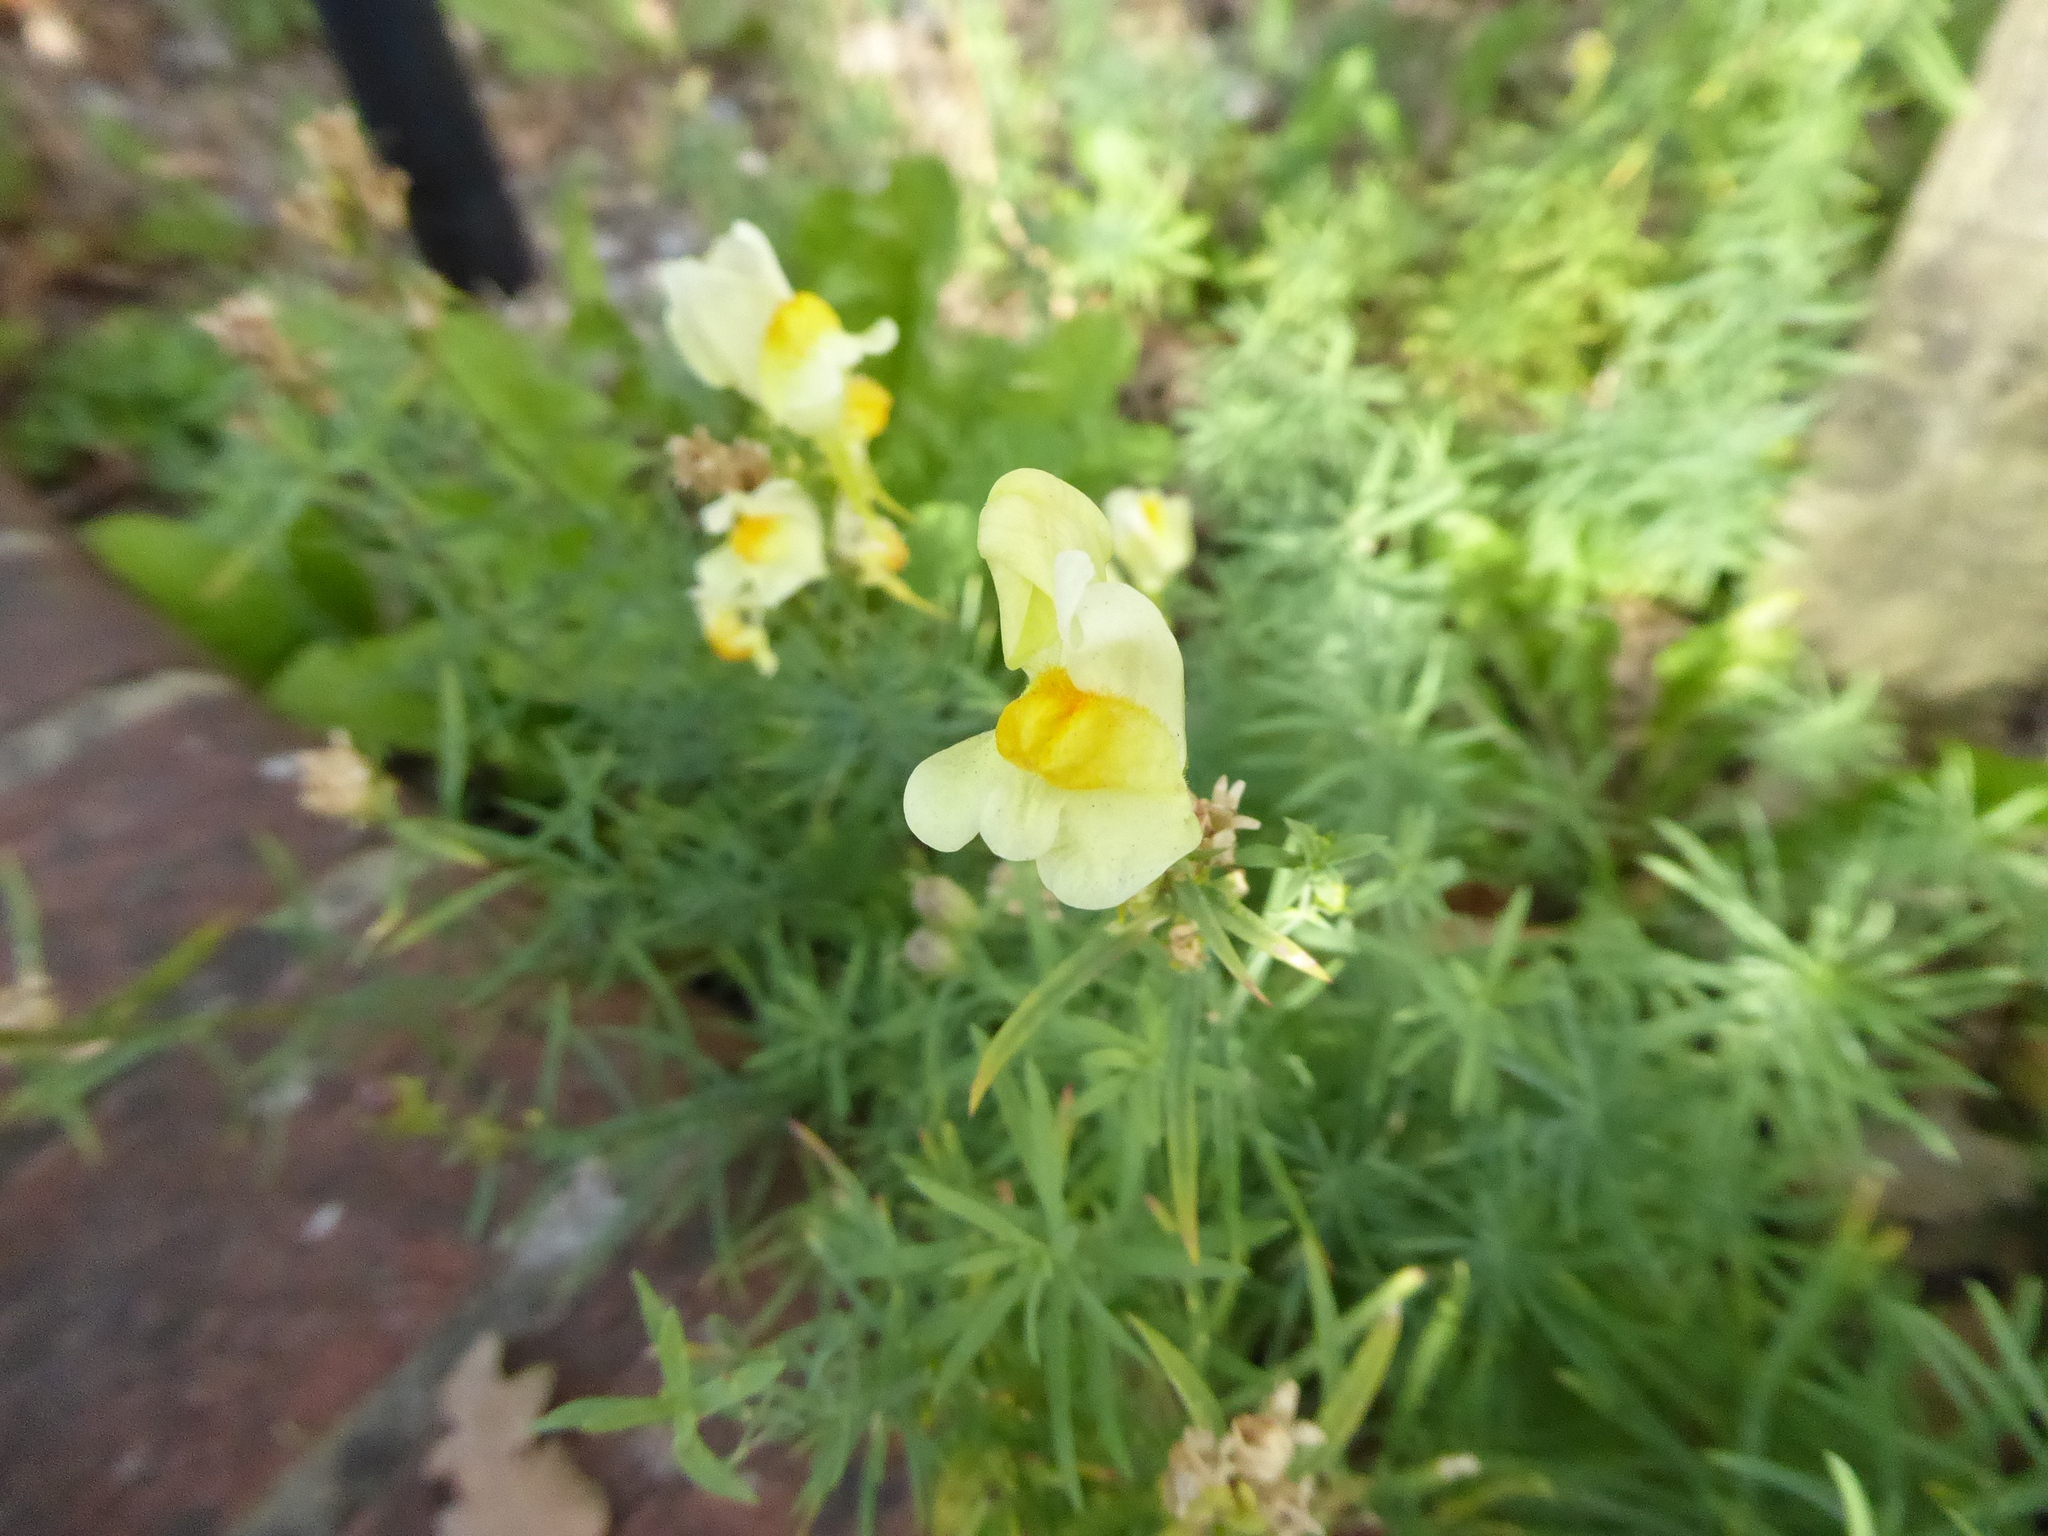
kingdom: Plantae
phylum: Tracheophyta
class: Magnoliopsida
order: Lamiales
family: Plantaginaceae
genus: Linaria
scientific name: Linaria vulgaris
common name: Butter and eggs
